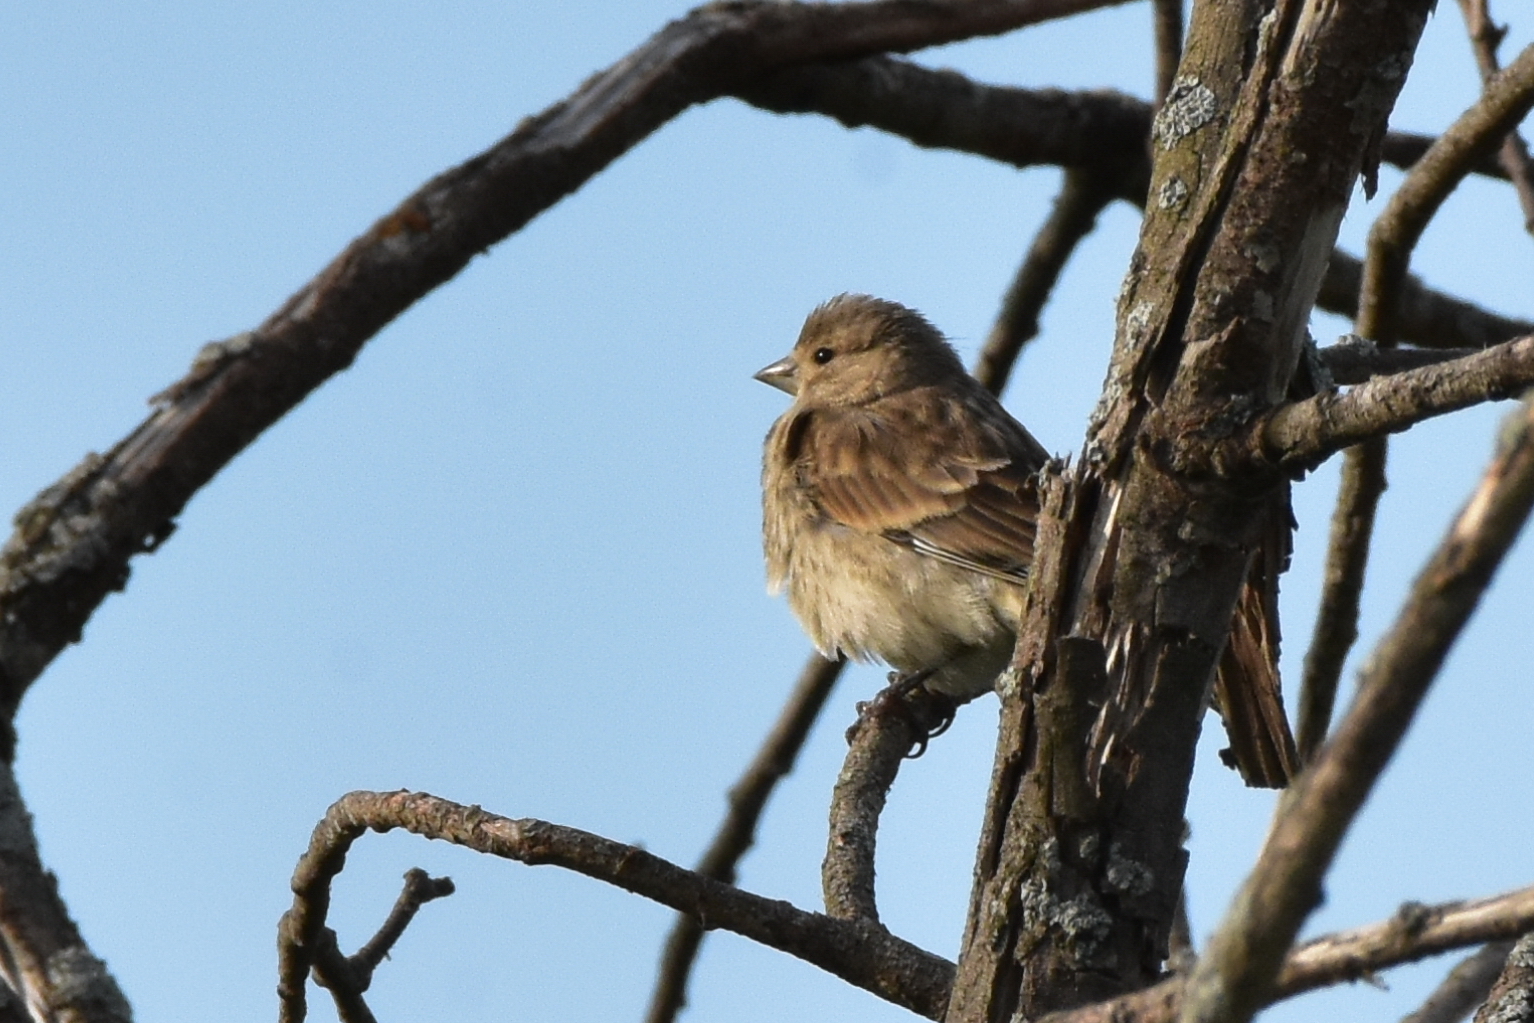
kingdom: Animalia
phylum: Chordata
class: Aves
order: Passeriformes
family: Fringillidae
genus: Linaria
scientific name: Linaria cannabina
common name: Common linnet
